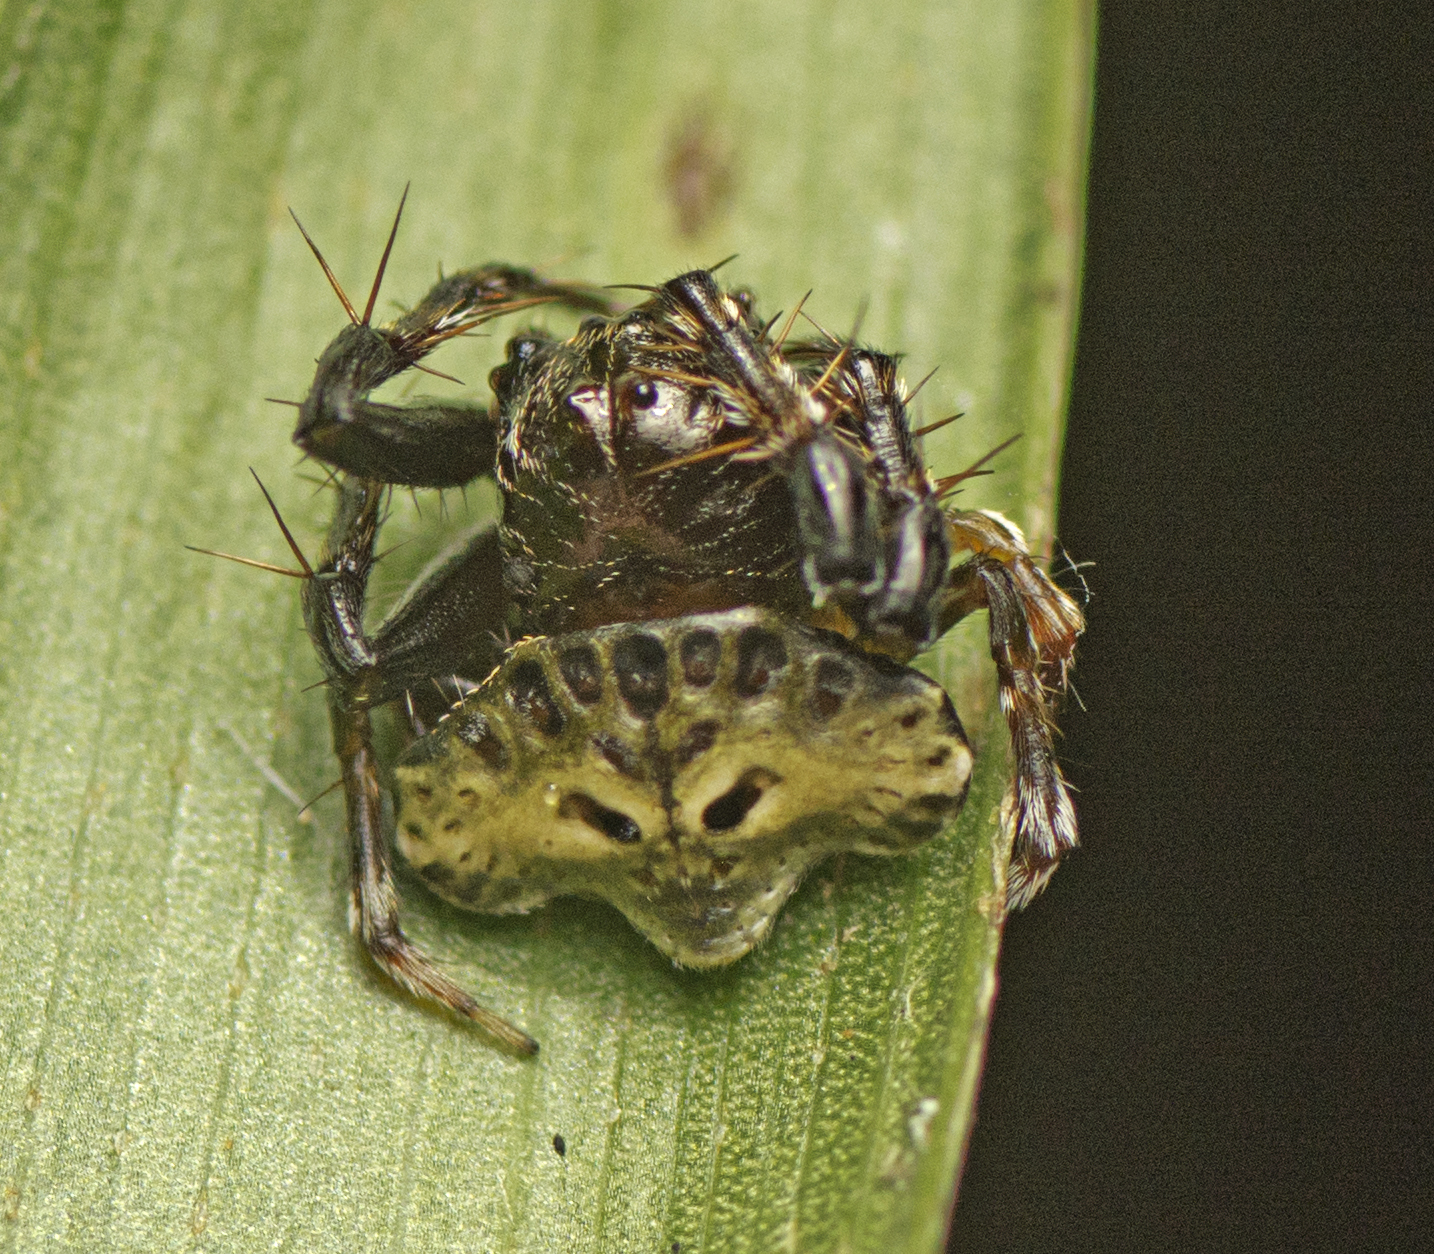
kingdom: Animalia
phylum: Arthropoda
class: Arachnida
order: Araneae
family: Arkyidae
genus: Arkys
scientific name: Arkys speechleyi
